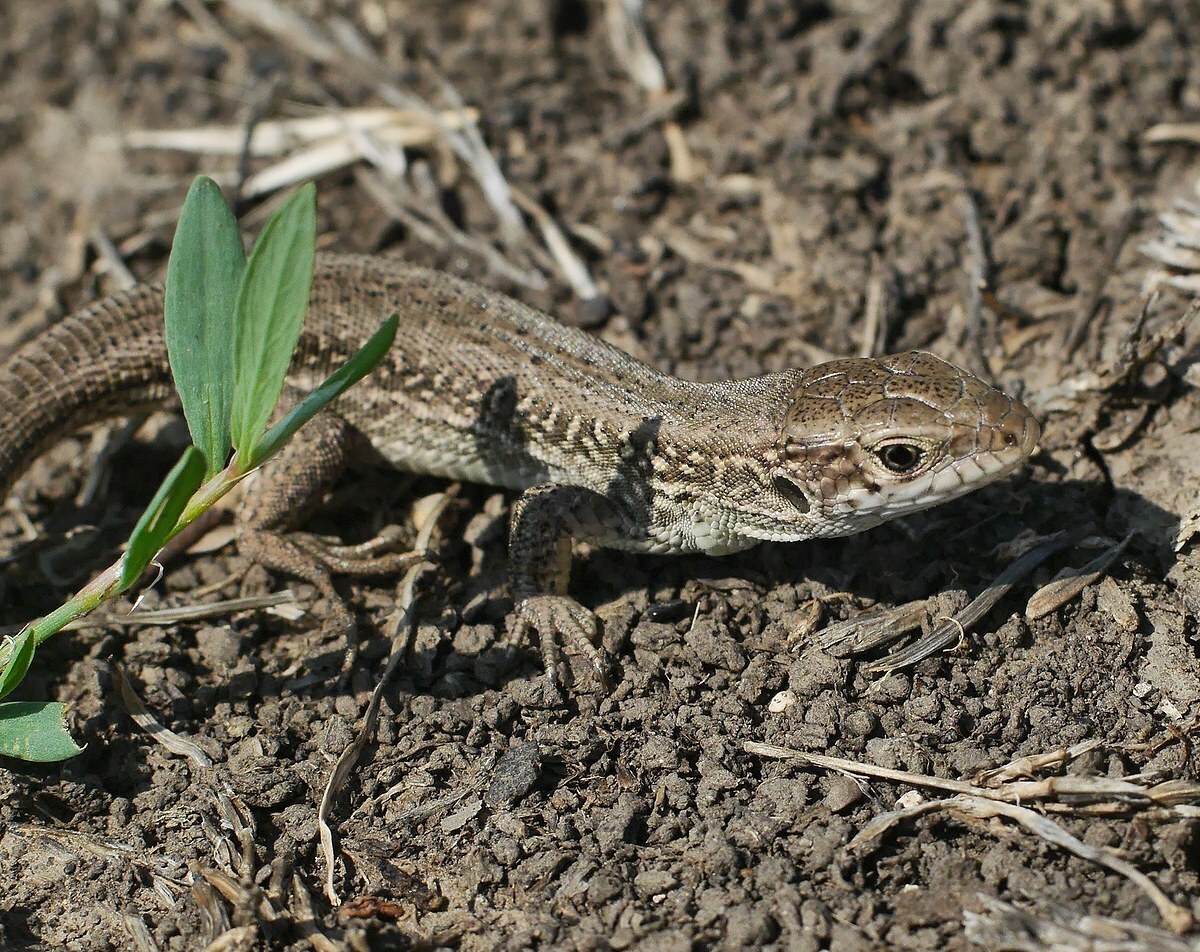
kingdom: Animalia
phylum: Chordata
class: Squamata
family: Lacertidae
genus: Lacerta
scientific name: Lacerta agilis
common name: Sand lizard
